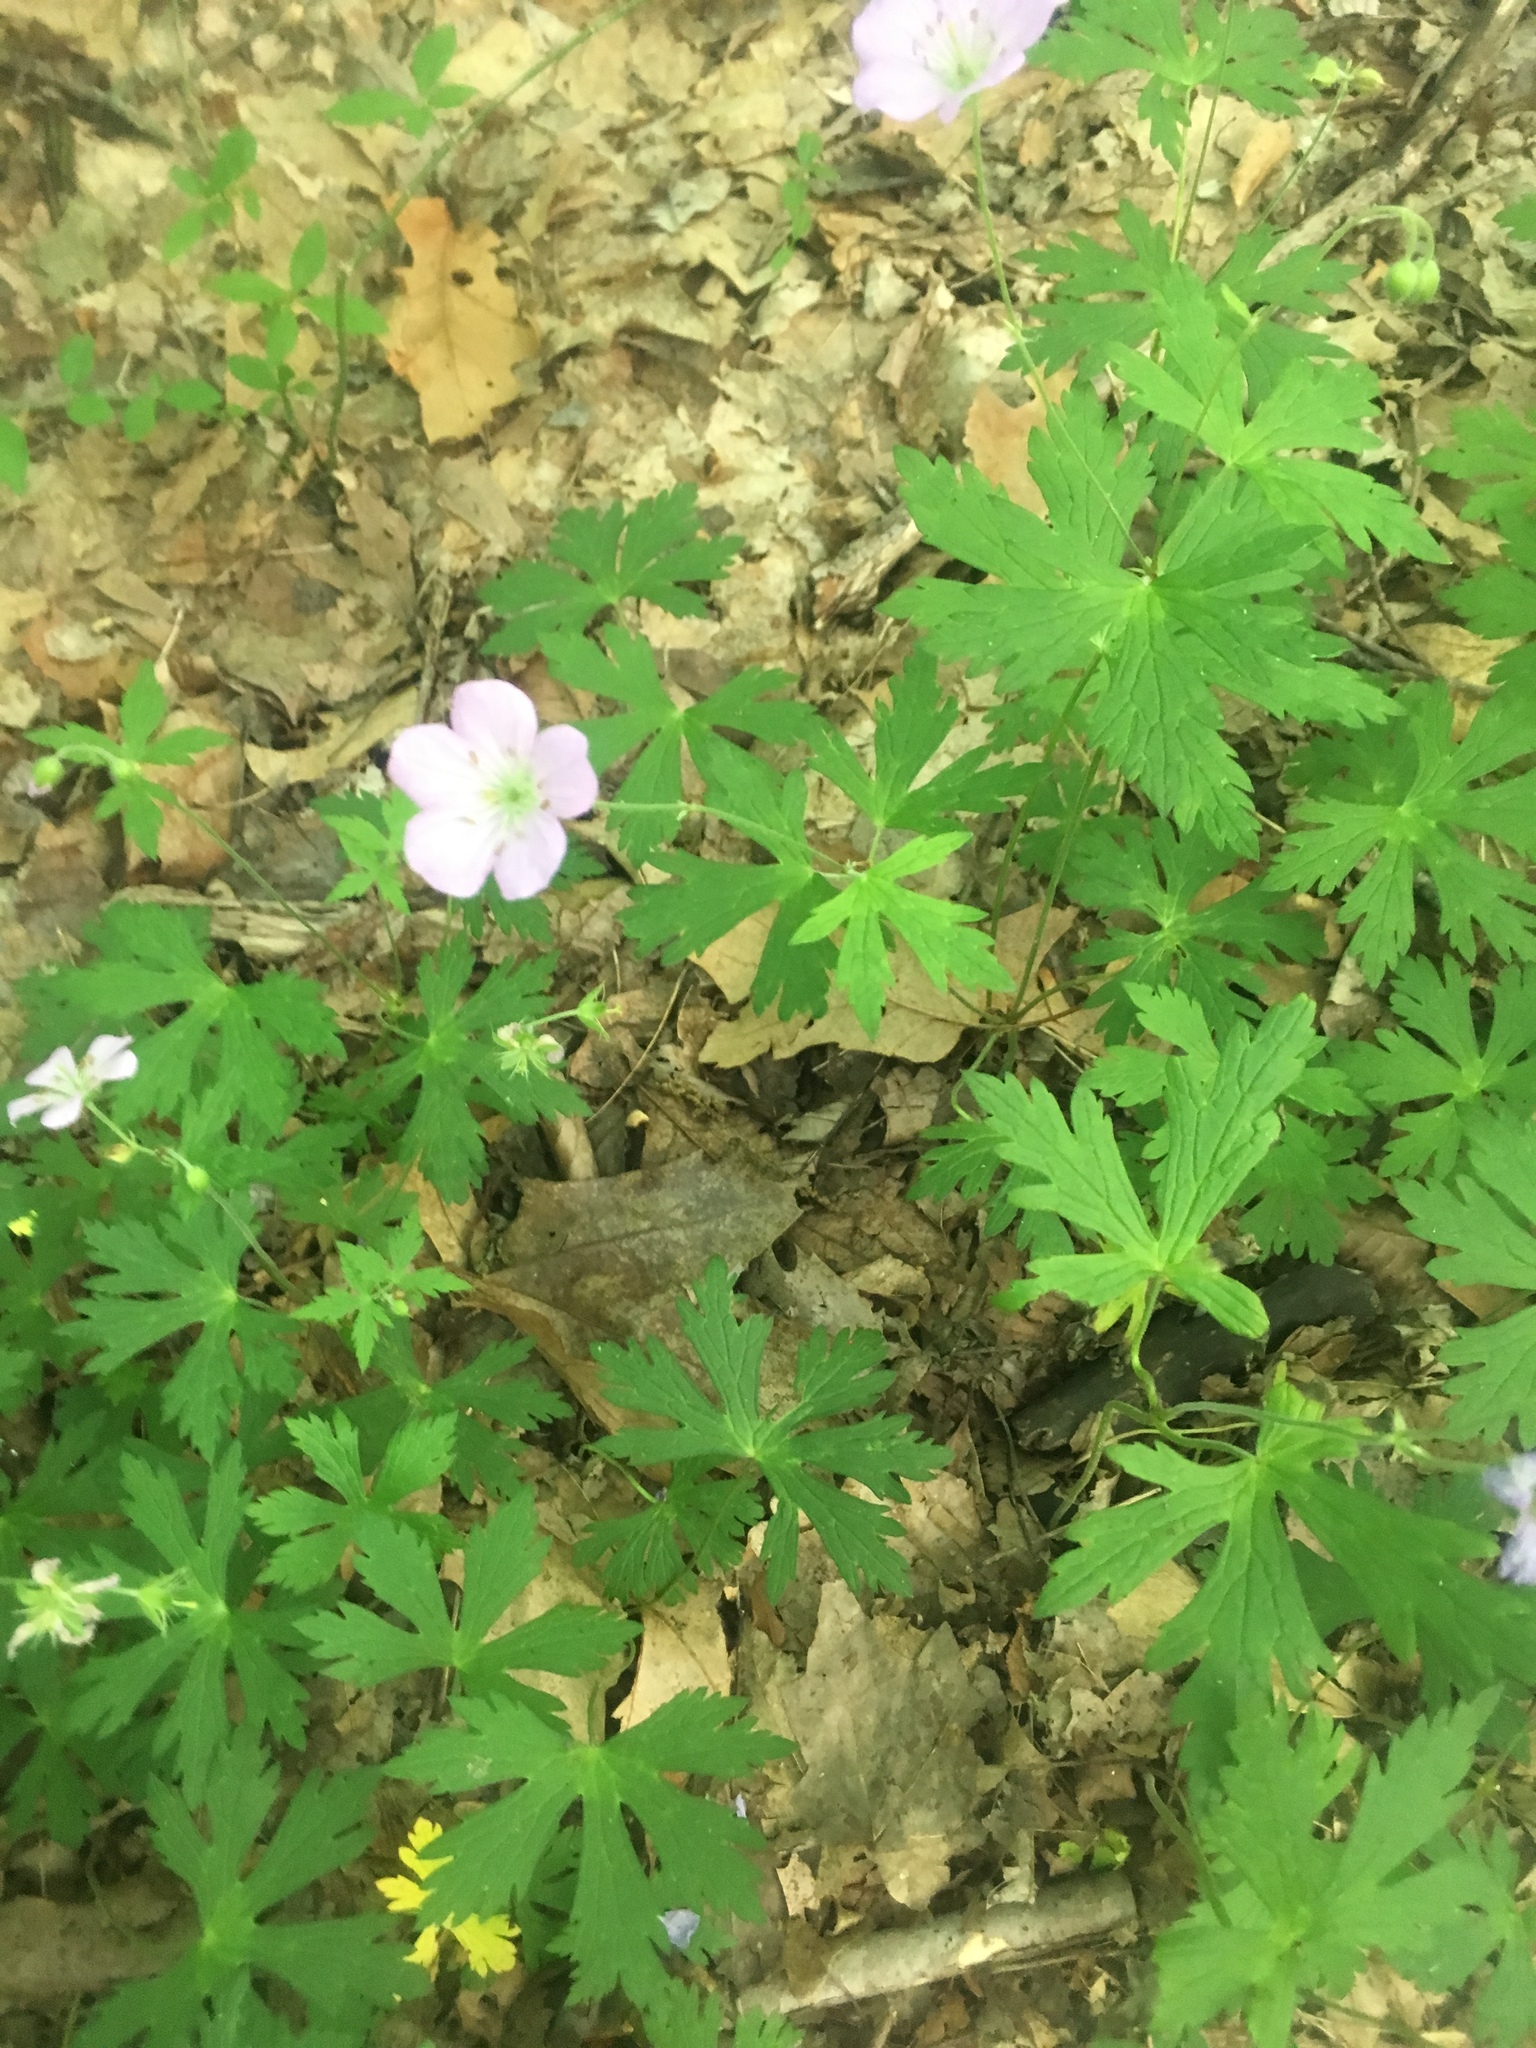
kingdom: Plantae
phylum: Tracheophyta
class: Magnoliopsida
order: Geraniales
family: Geraniaceae
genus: Geranium
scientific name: Geranium maculatum
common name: Spotted geranium
